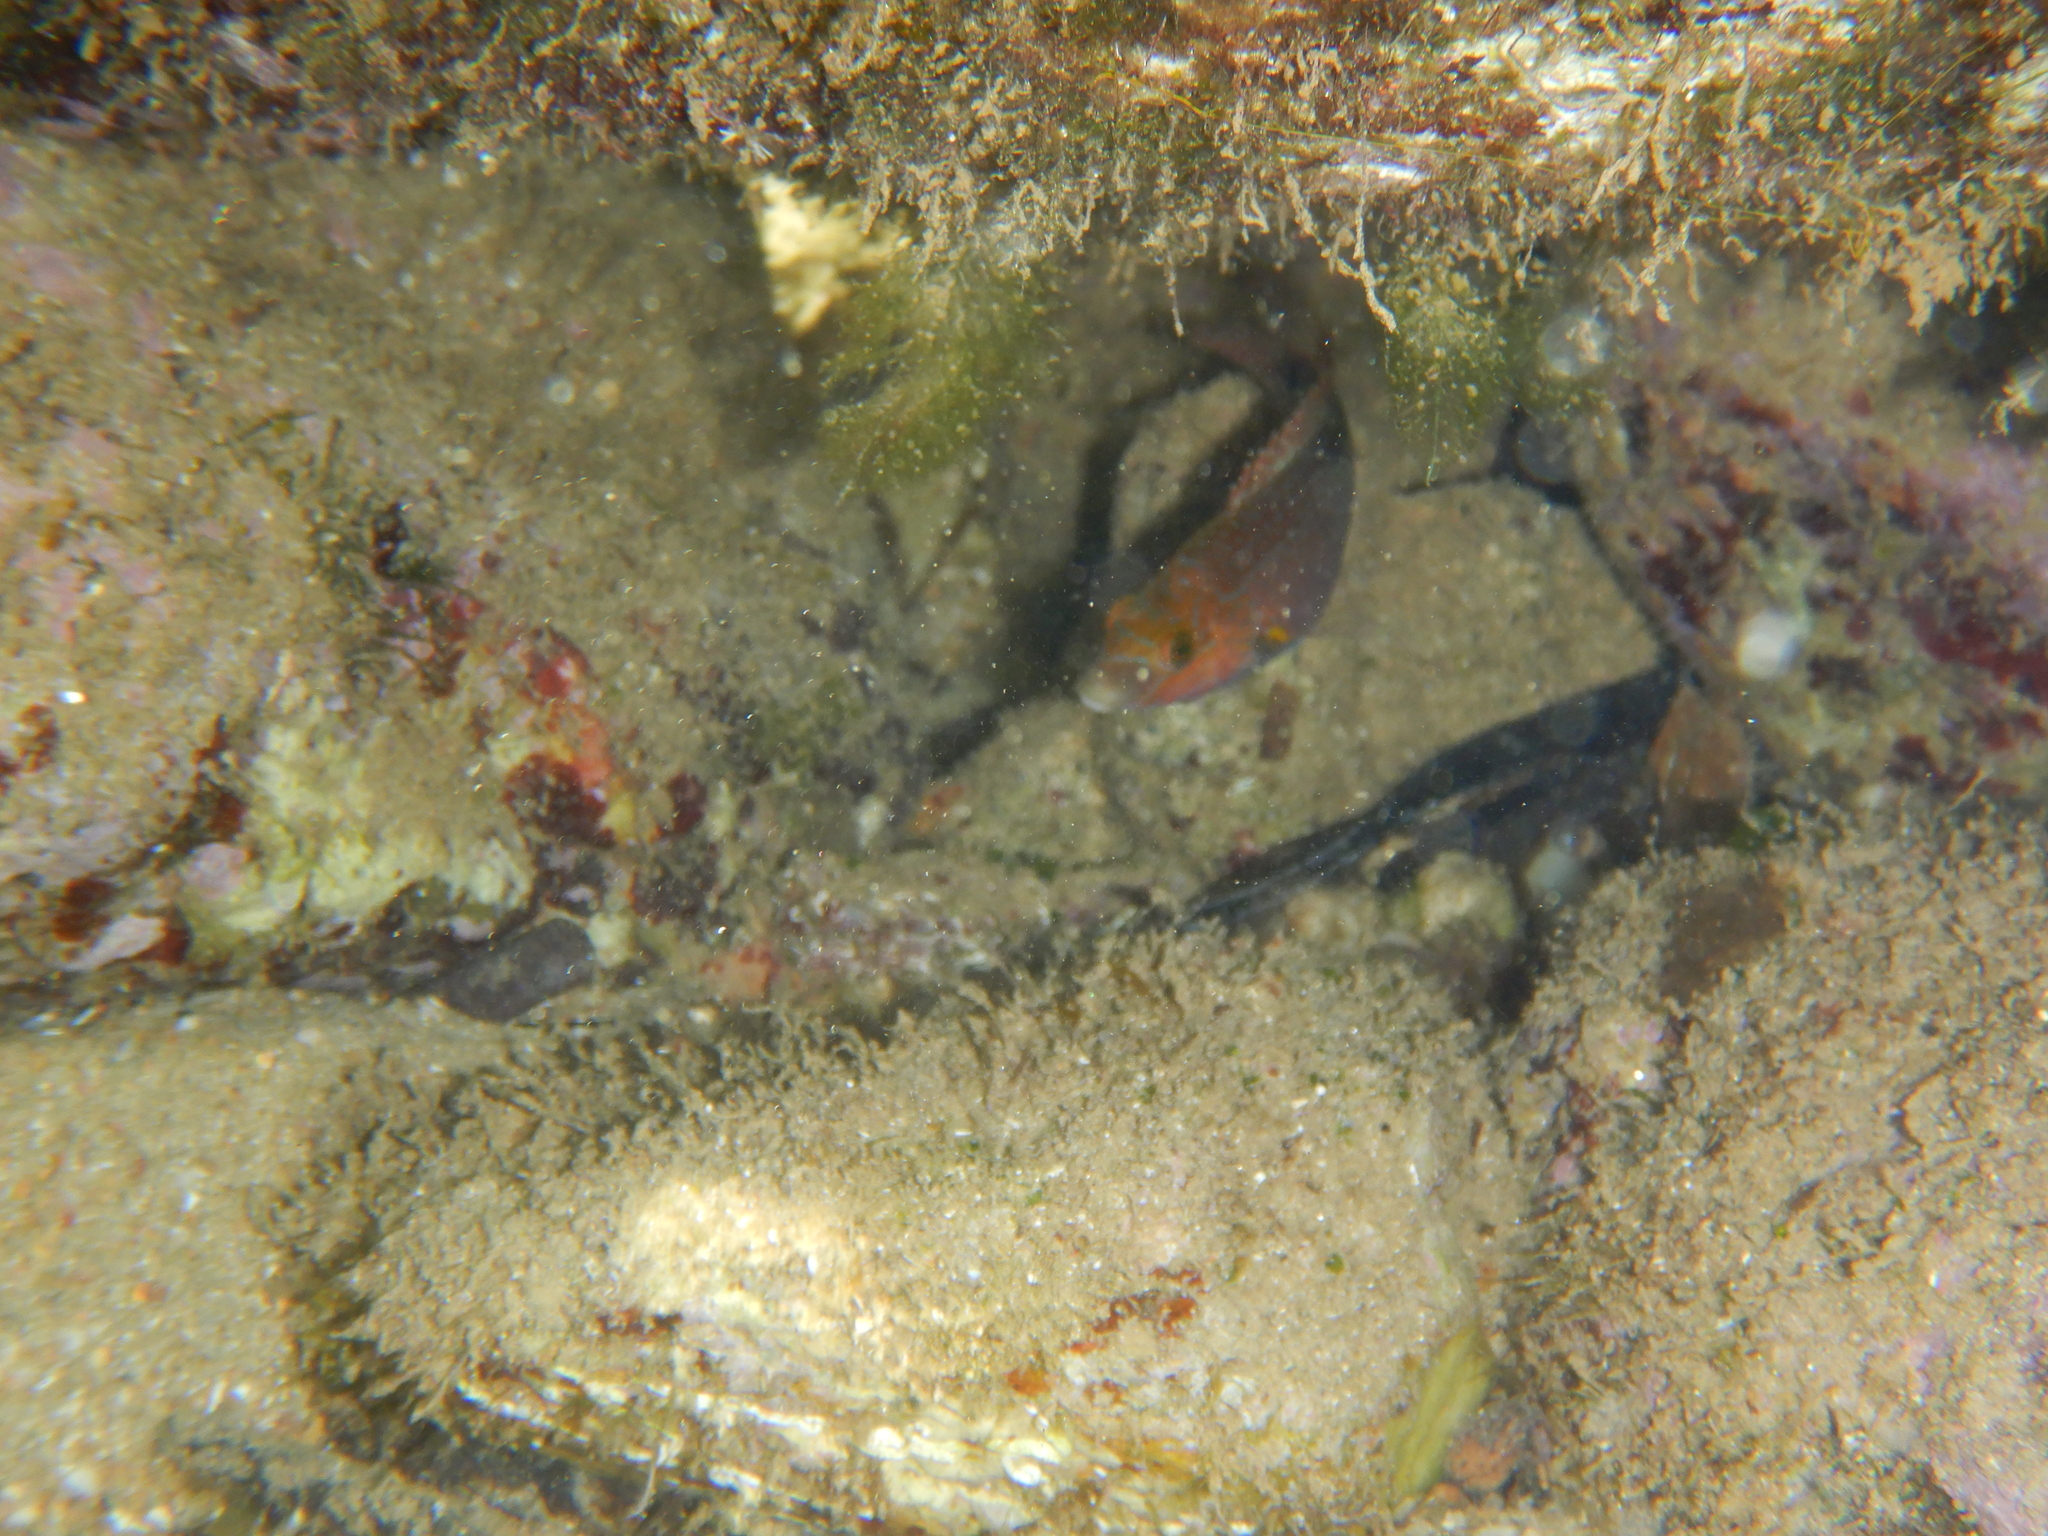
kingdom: Animalia
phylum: Chordata
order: Perciformes
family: Labridae
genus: Symphodus
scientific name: Symphodus mediterraneus
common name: Axillary wrasse
